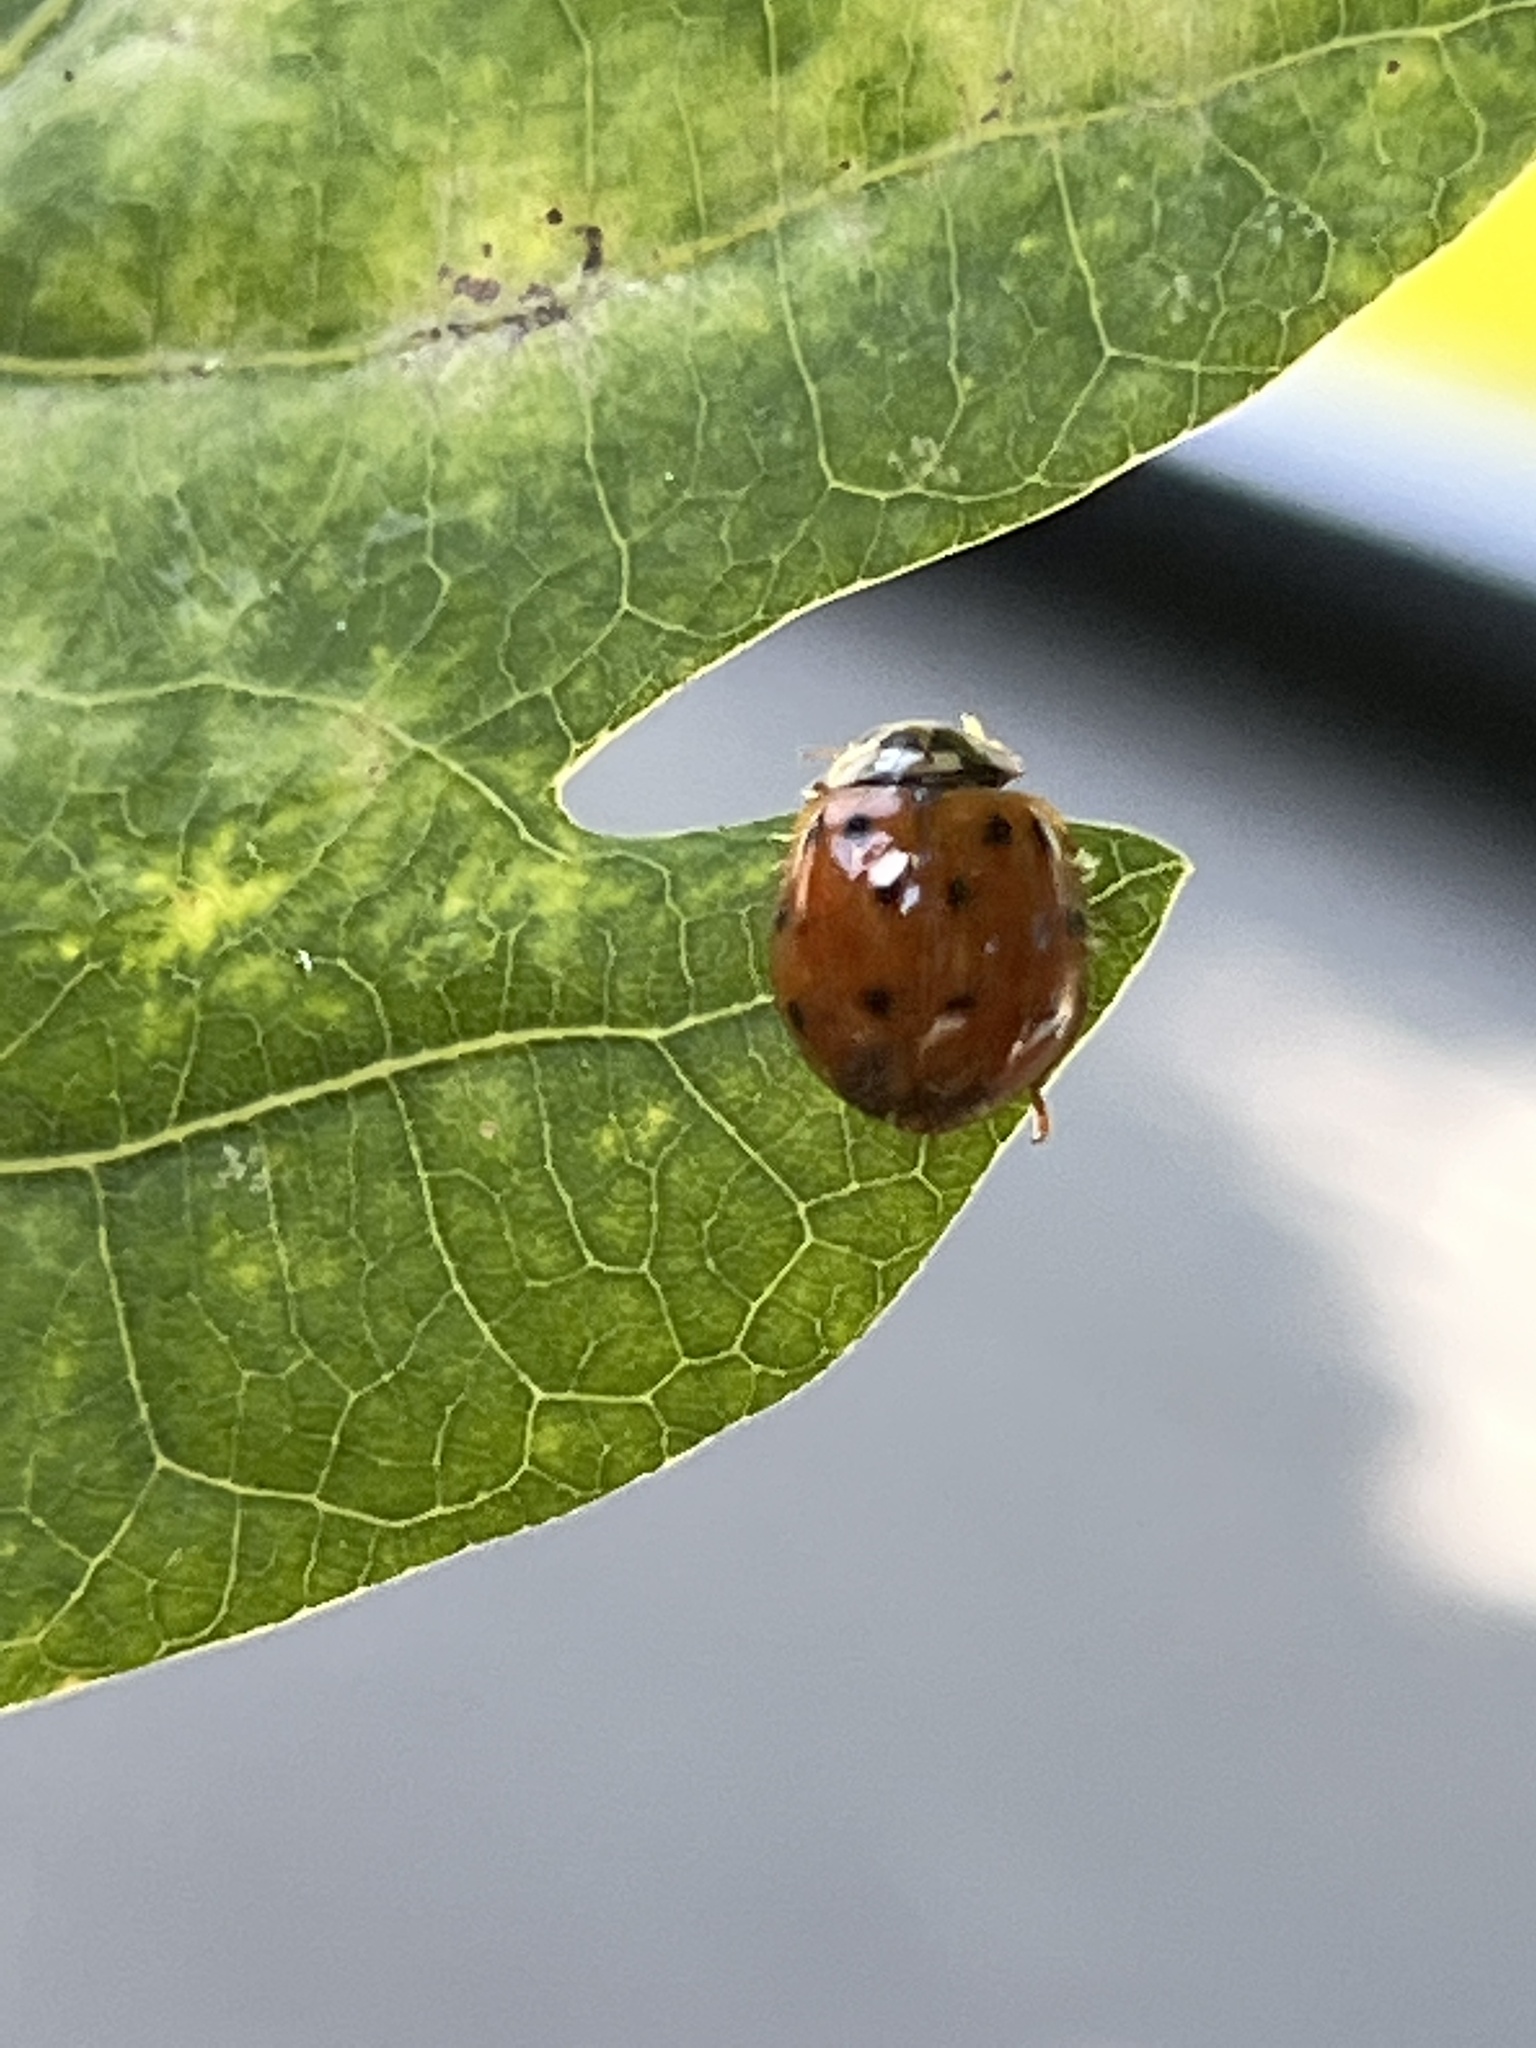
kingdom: Animalia
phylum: Arthropoda
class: Insecta
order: Coleoptera
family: Coccinellidae
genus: Harmonia
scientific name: Harmonia axyridis
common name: Harlequin ladybird
